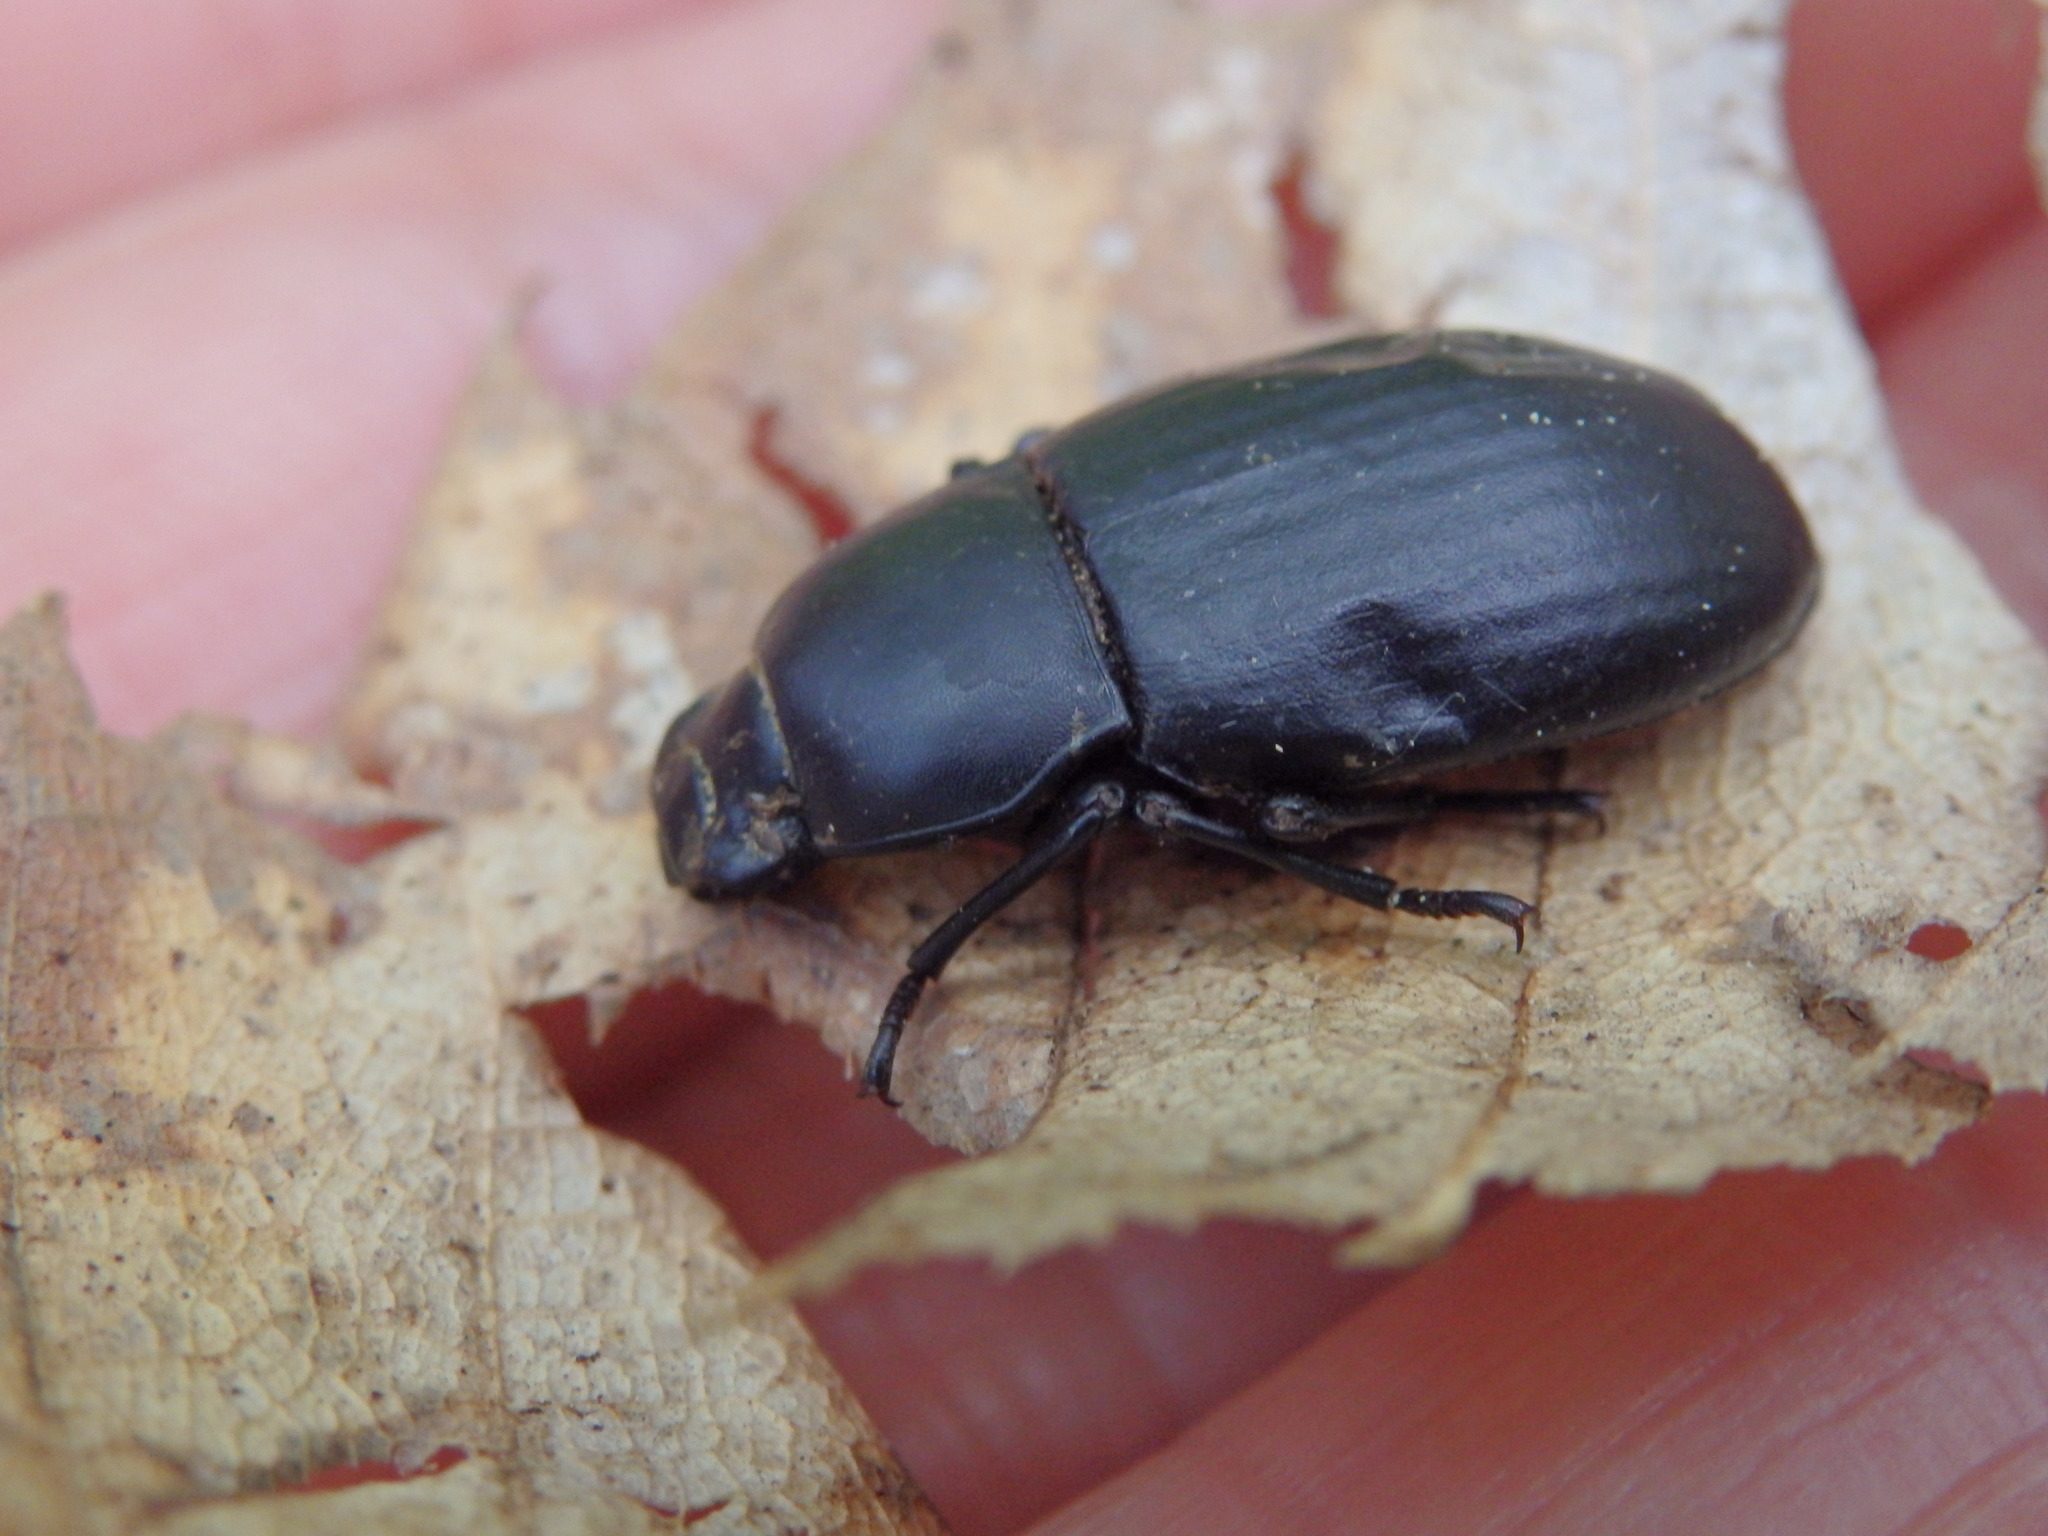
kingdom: Animalia
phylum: Arthropoda
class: Insecta
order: Coleoptera
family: Tenebrionidae
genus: Coelometopus
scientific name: Coelometopus clypeatus
